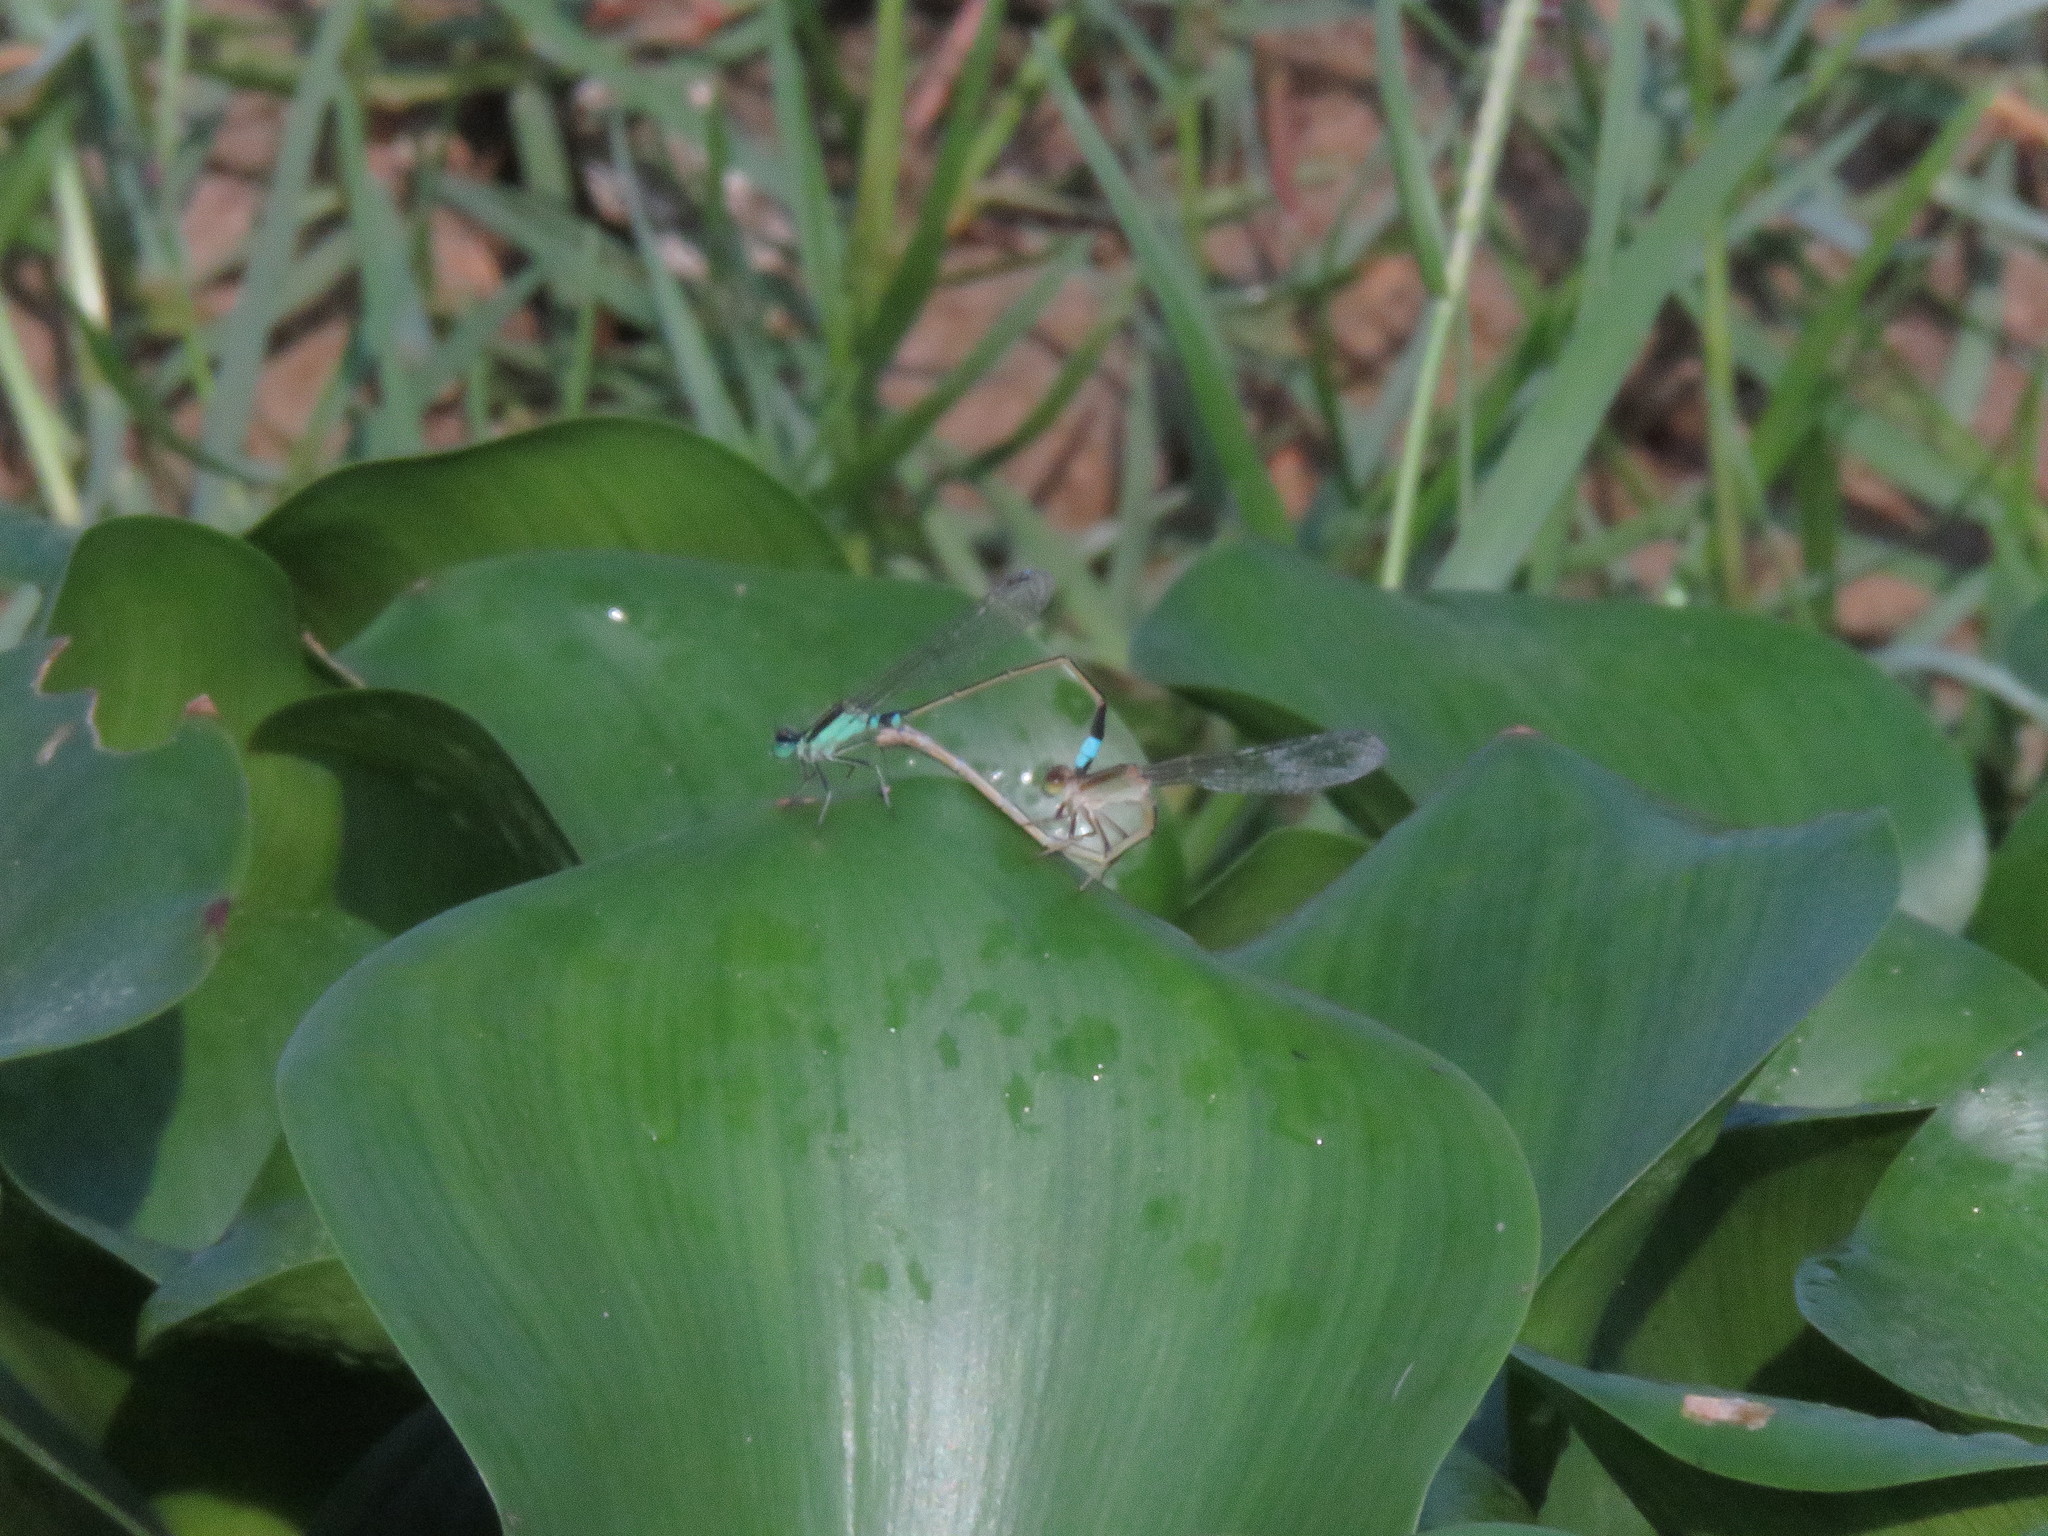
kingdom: Animalia
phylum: Arthropoda
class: Insecta
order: Odonata
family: Coenagrionidae
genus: Ischnura
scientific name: Ischnura senegalensis
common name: Tropical bluetail
